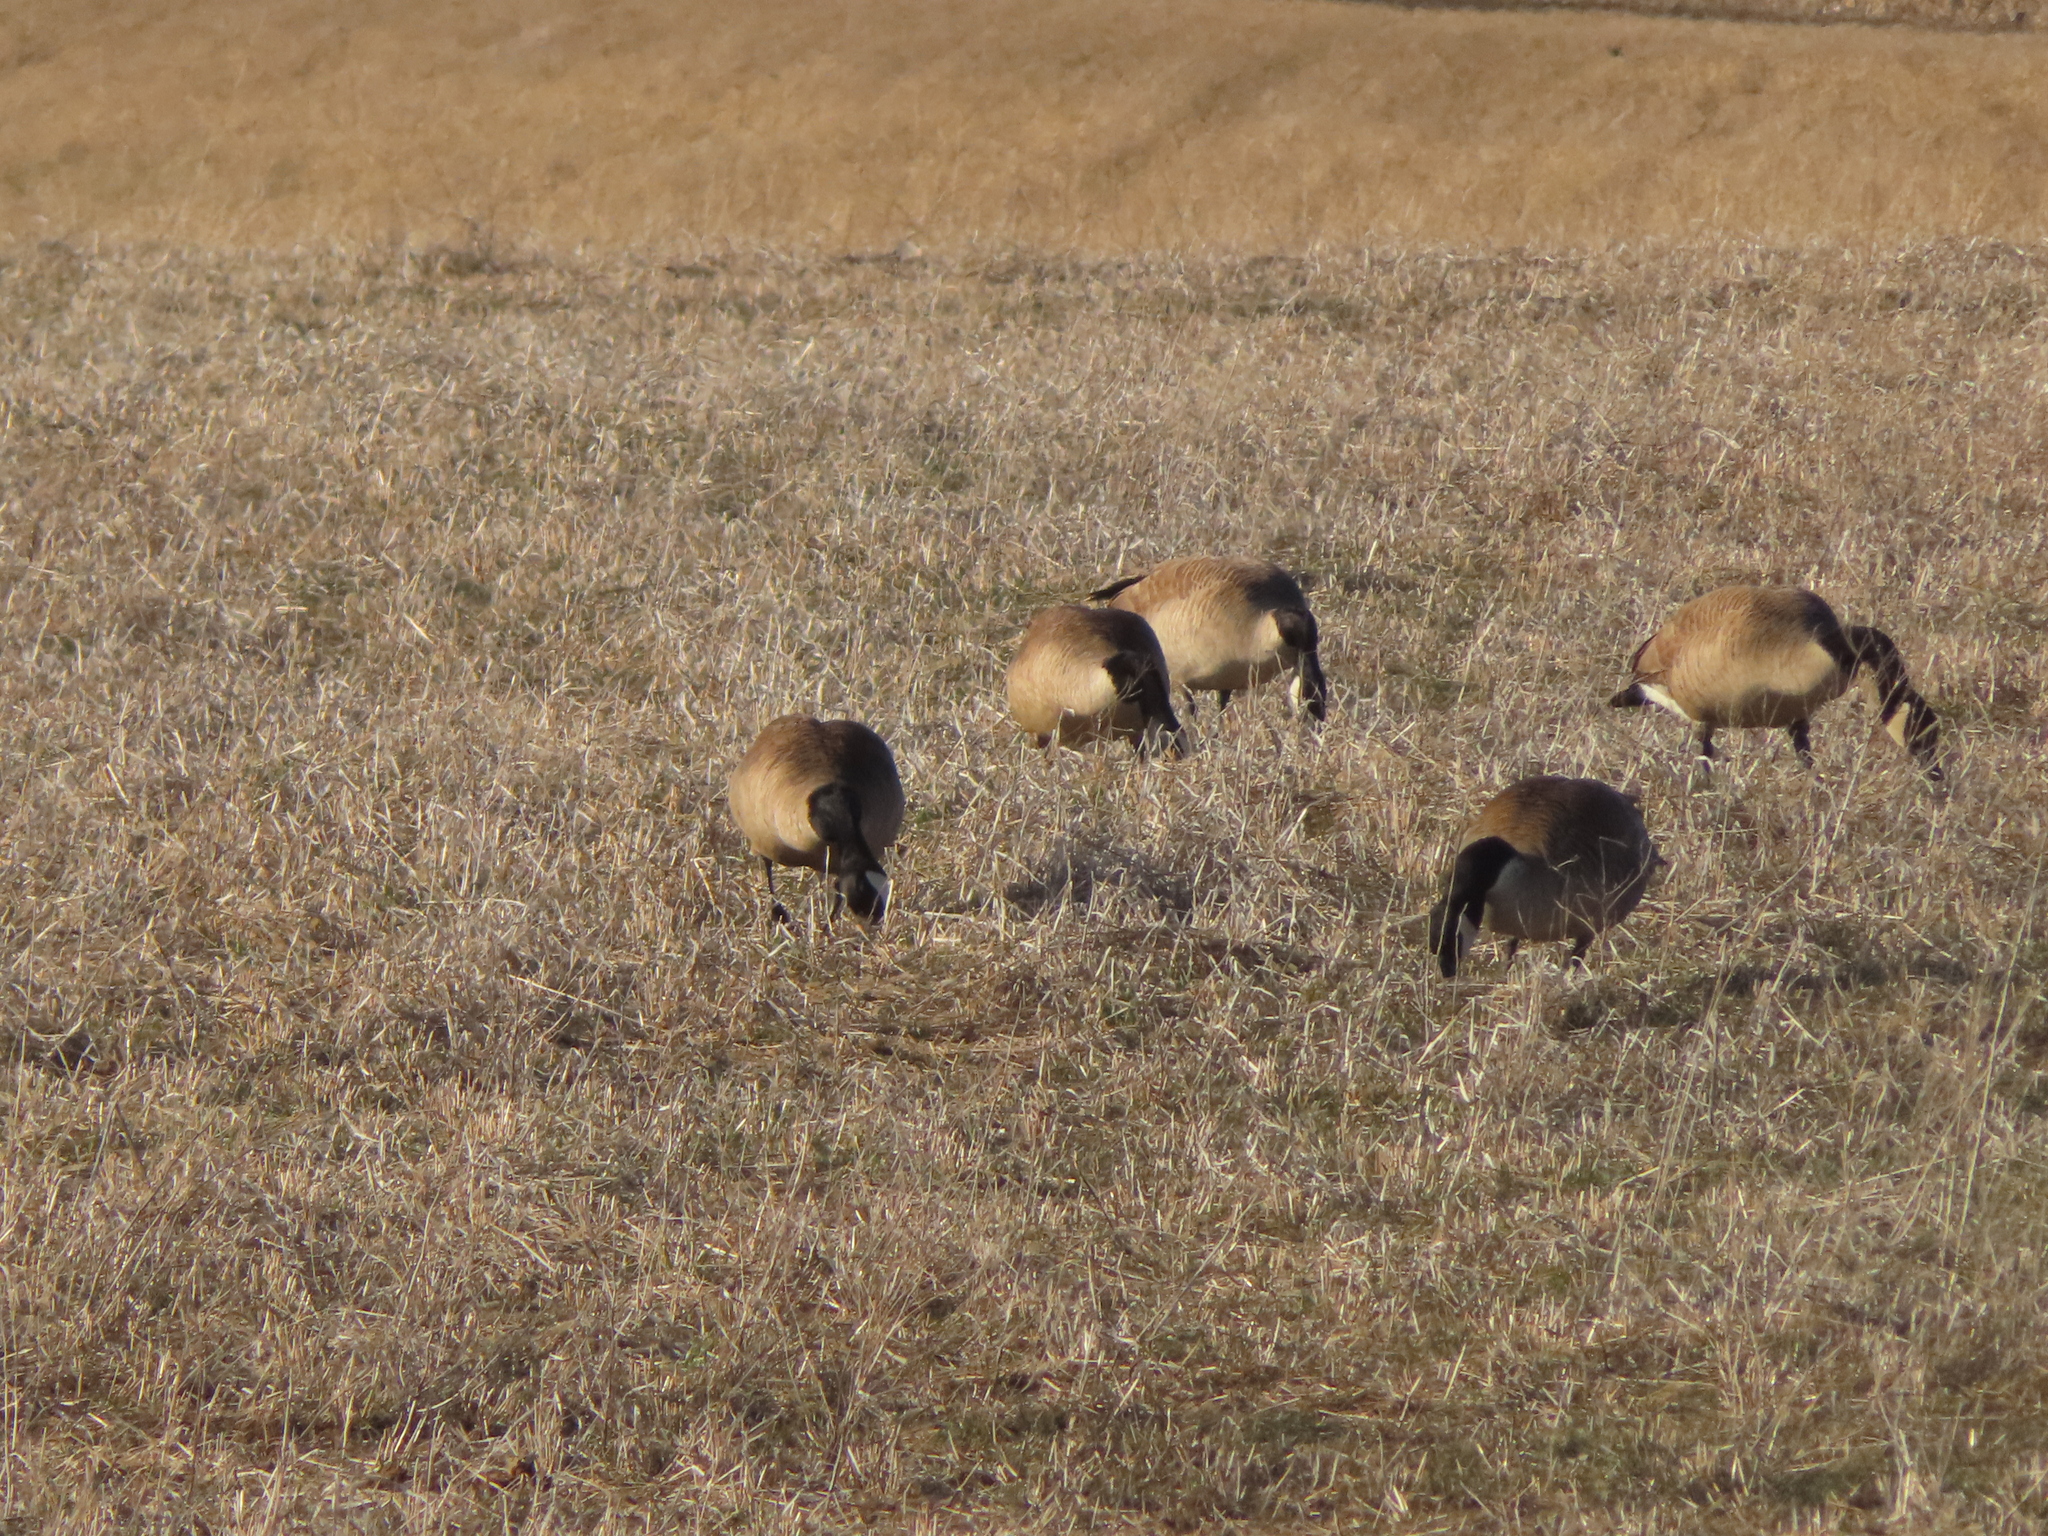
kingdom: Animalia
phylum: Chordata
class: Aves
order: Anseriformes
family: Anatidae
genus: Branta
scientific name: Branta canadensis
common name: Canada goose
